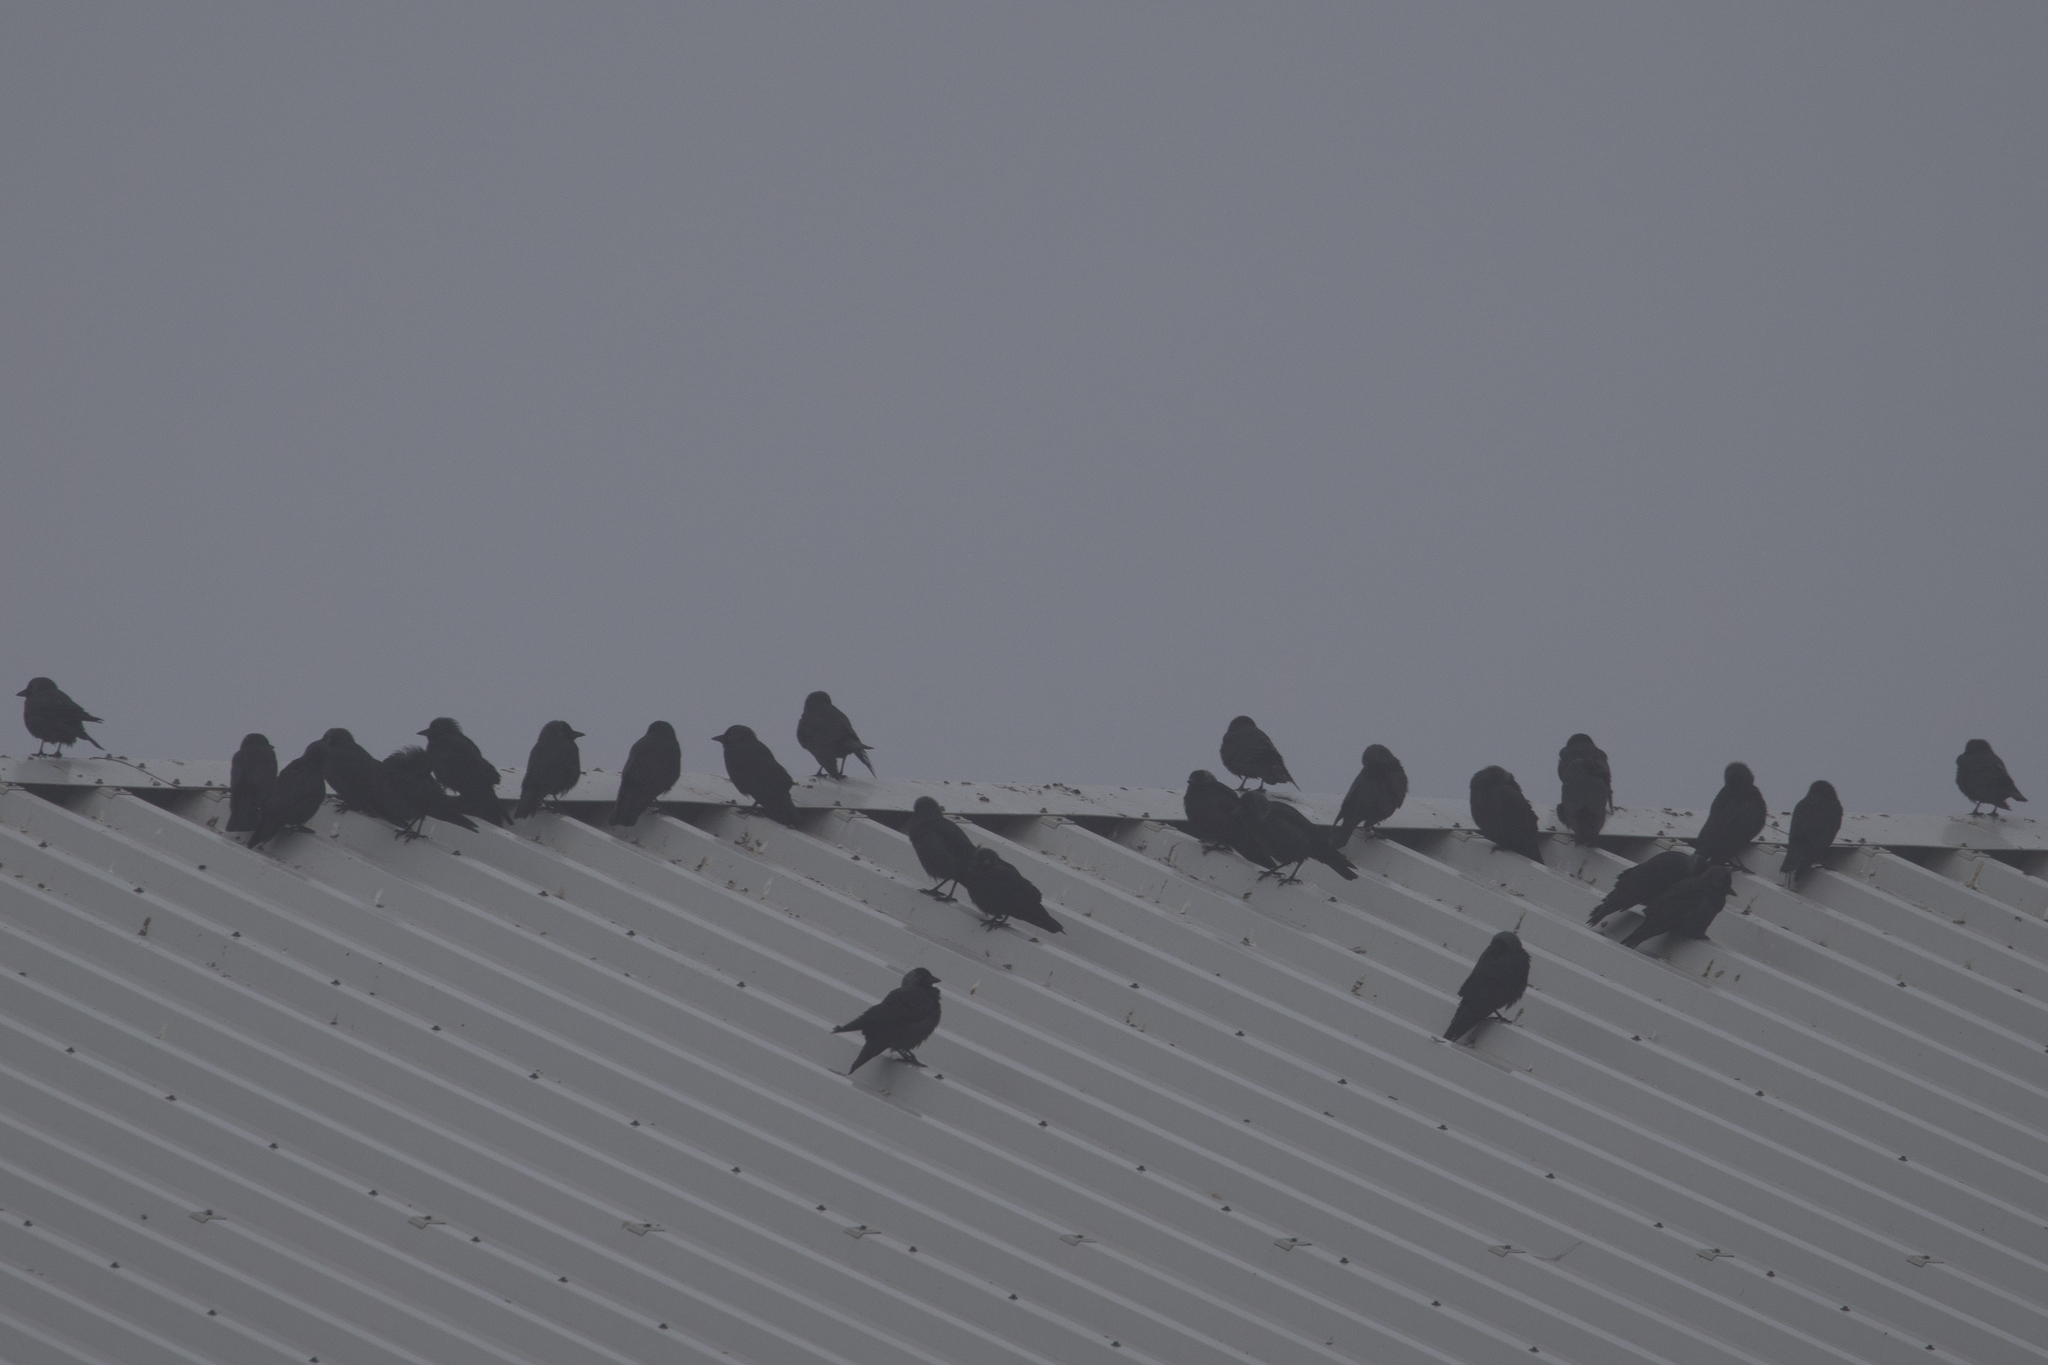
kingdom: Animalia
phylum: Chordata
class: Aves
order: Passeriformes
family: Corvidae
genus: Coloeus
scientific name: Coloeus monedula
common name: Western jackdaw
